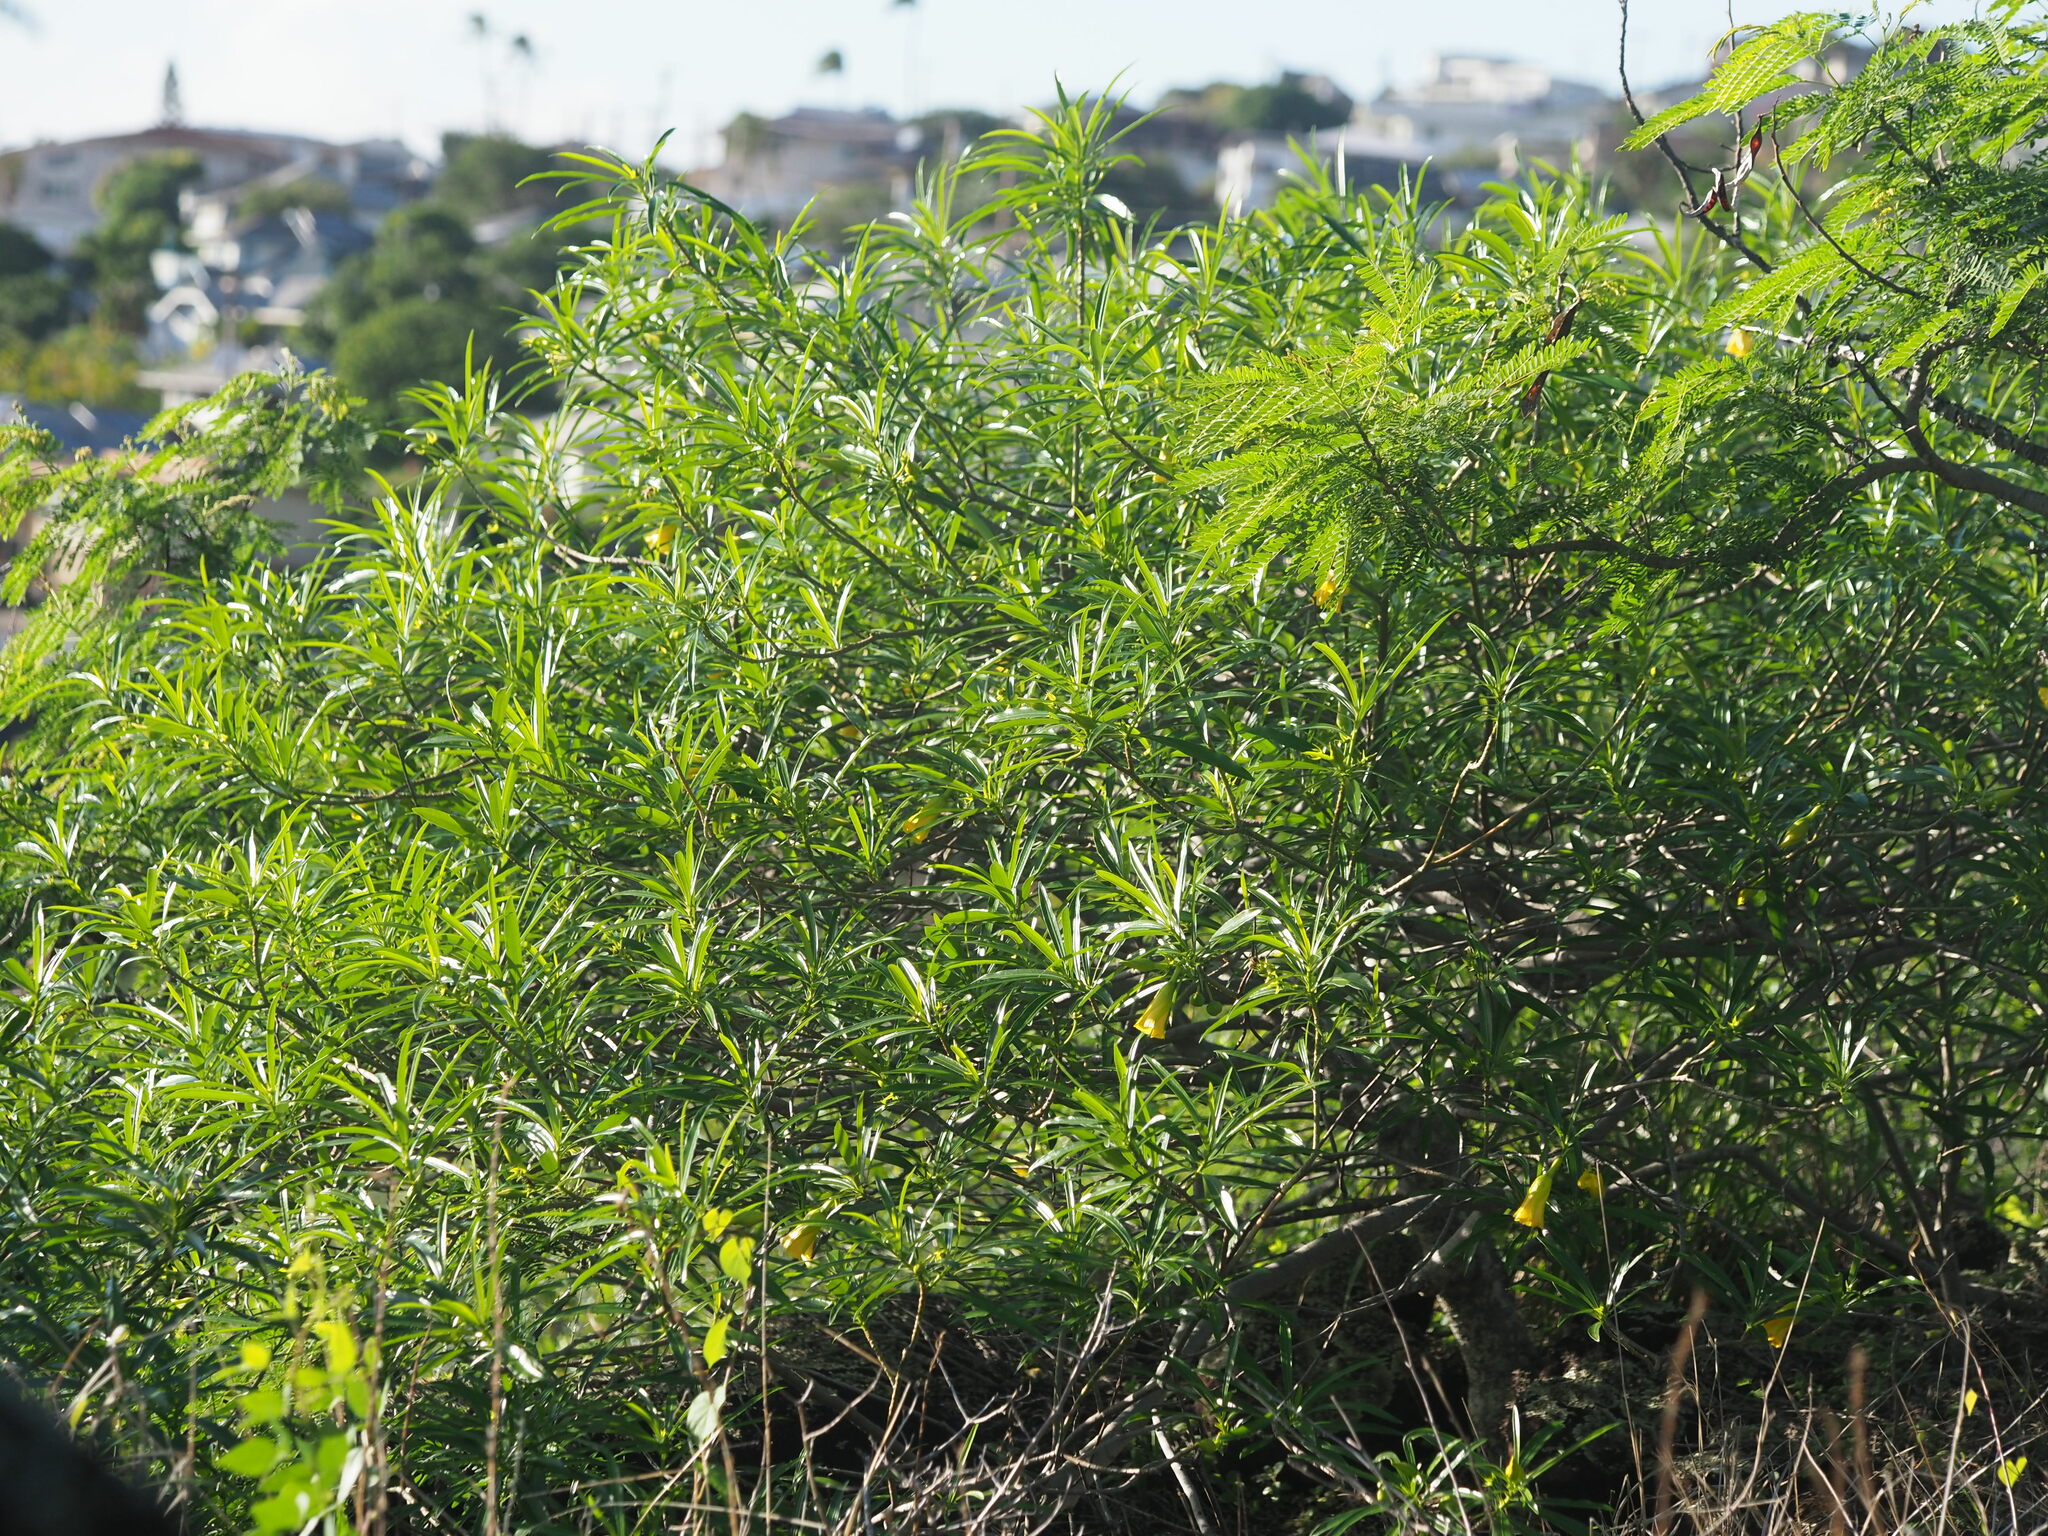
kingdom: Plantae
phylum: Tracheophyta
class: Magnoliopsida
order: Gentianales
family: Apocynaceae
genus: Cascabela
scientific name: Cascabela thevetia
